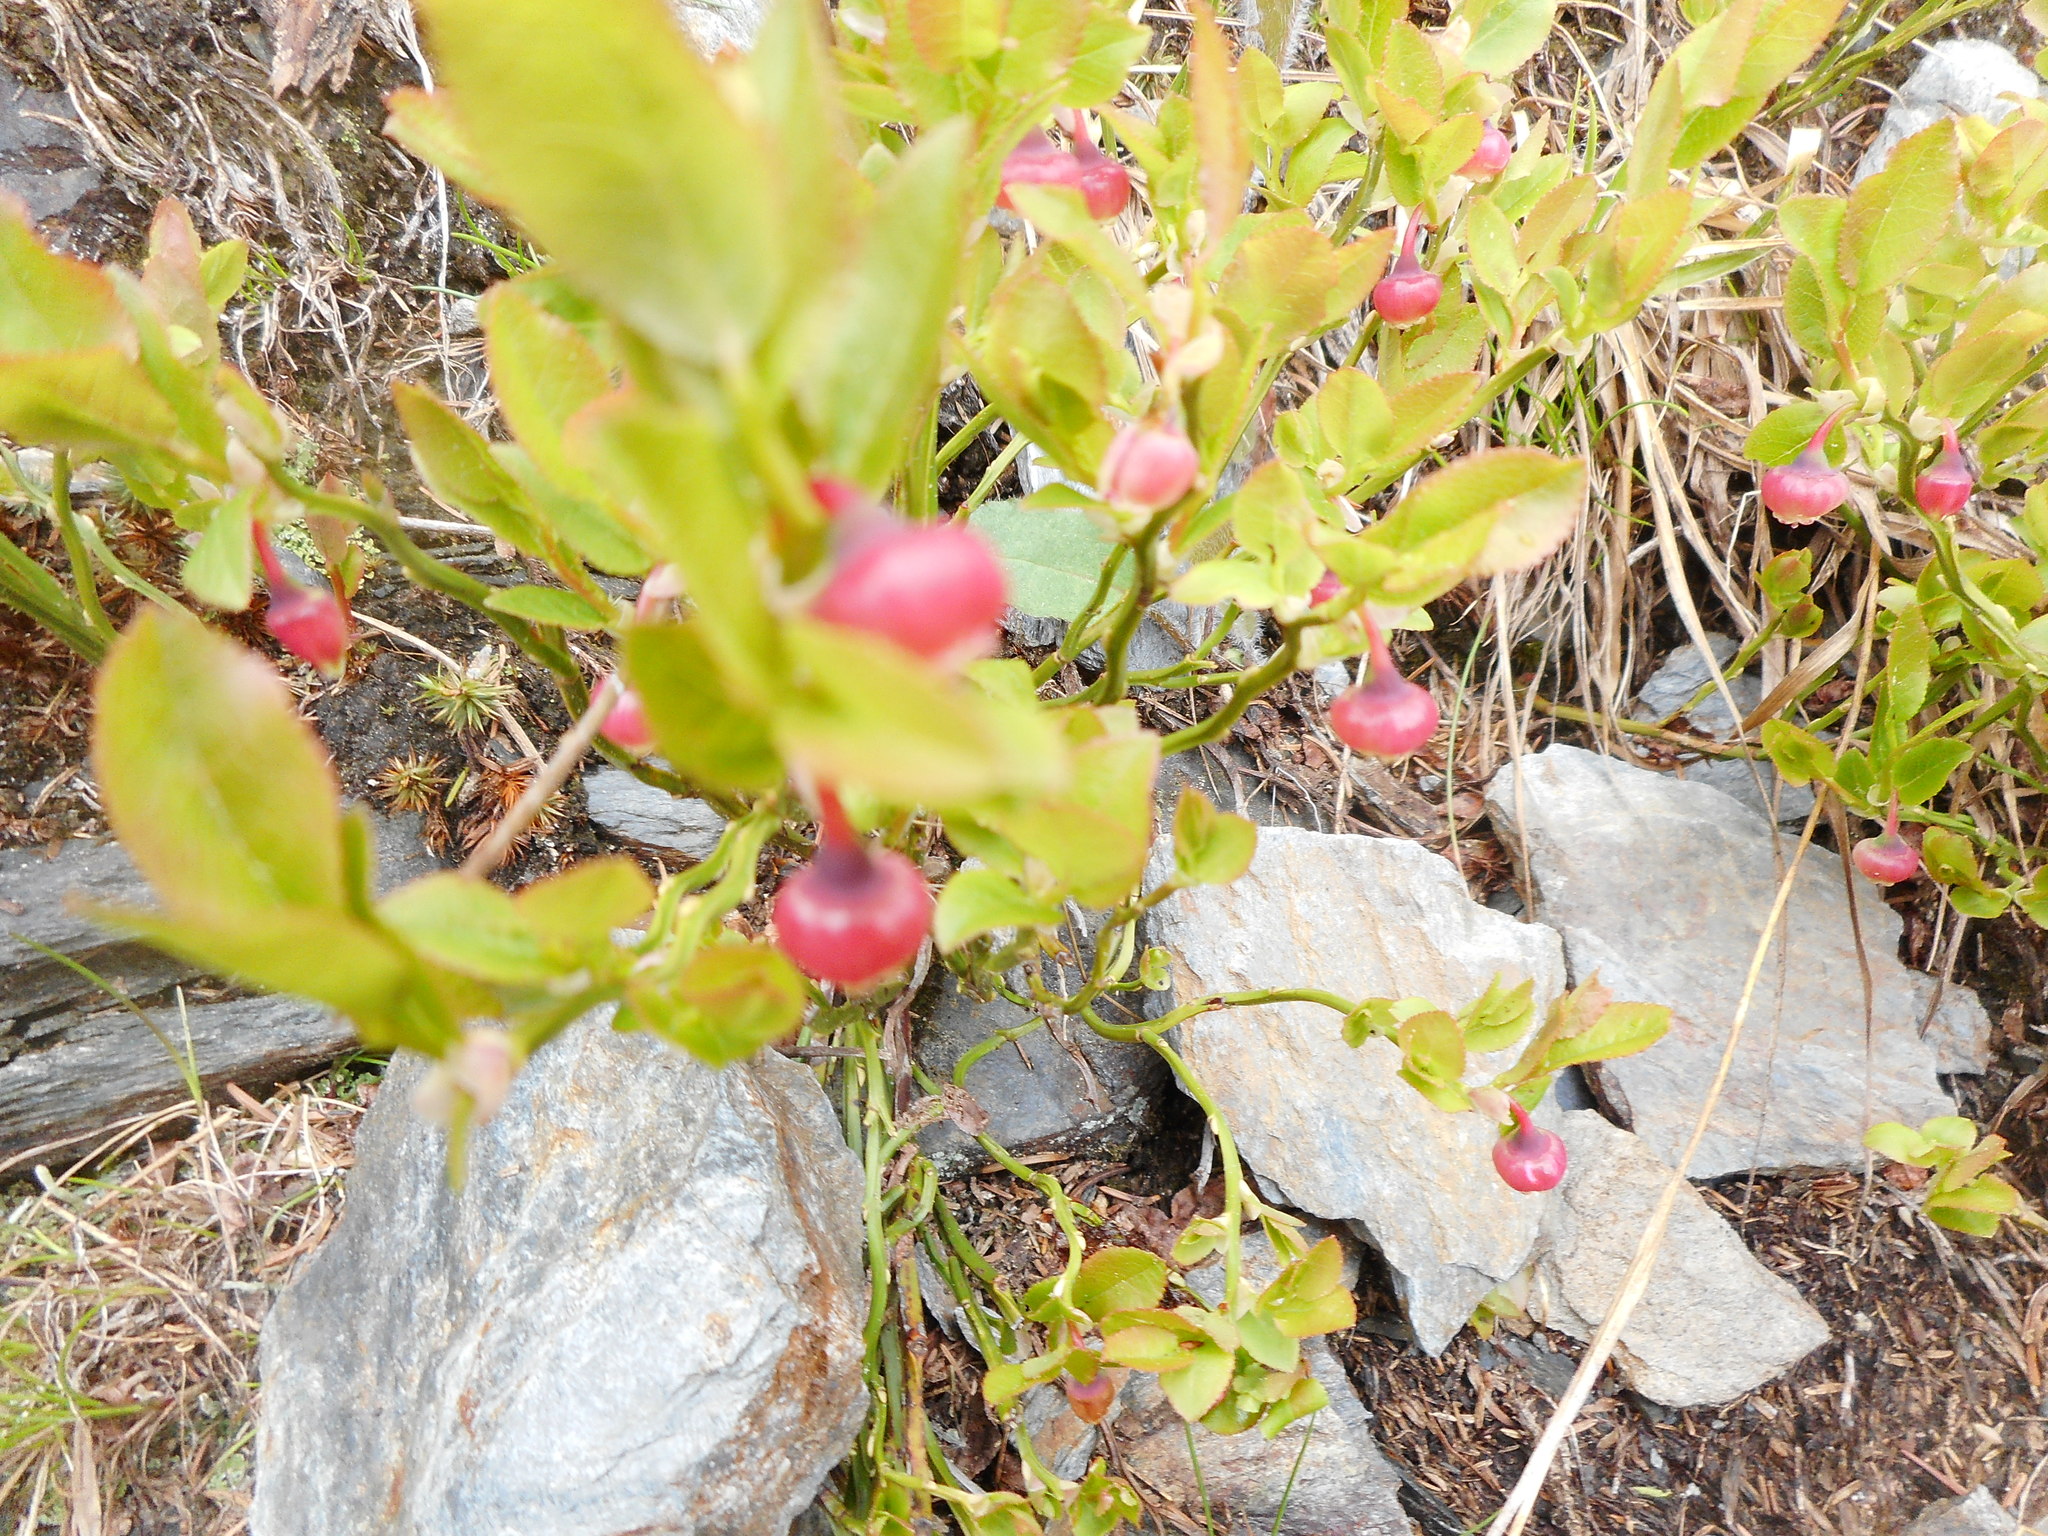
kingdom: Plantae
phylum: Tracheophyta
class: Magnoliopsida
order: Ericales
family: Ericaceae
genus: Vaccinium
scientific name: Vaccinium myrtillus
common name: Bilberry
